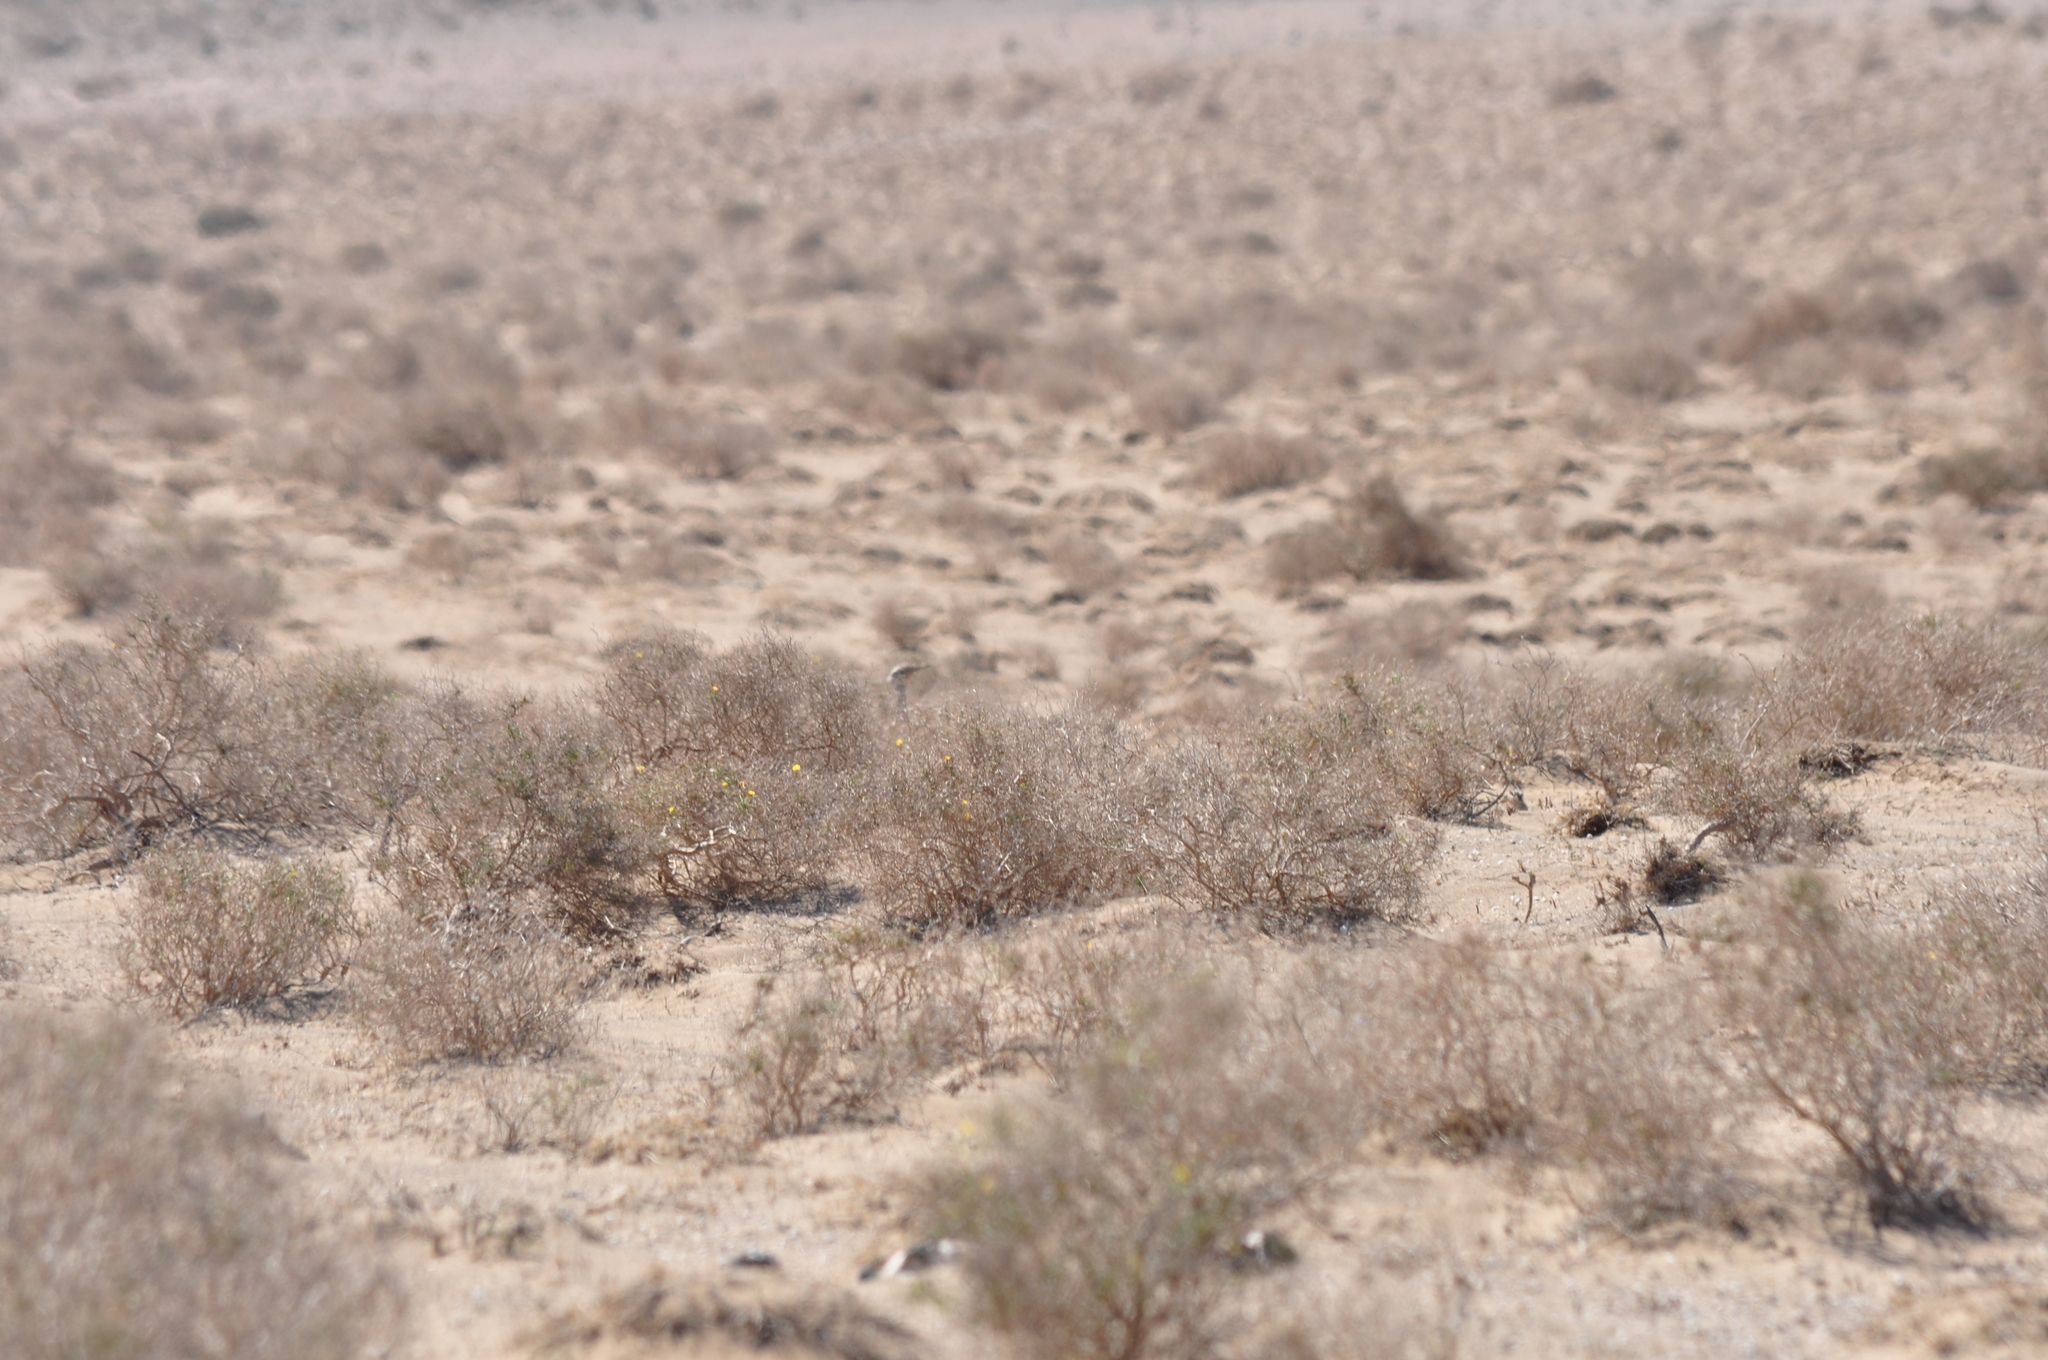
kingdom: Animalia
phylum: Chordata
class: Aves
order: Otidiformes
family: Otididae
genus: Chlamydotis
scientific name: Chlamydotis undulata
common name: Houbara bustard
